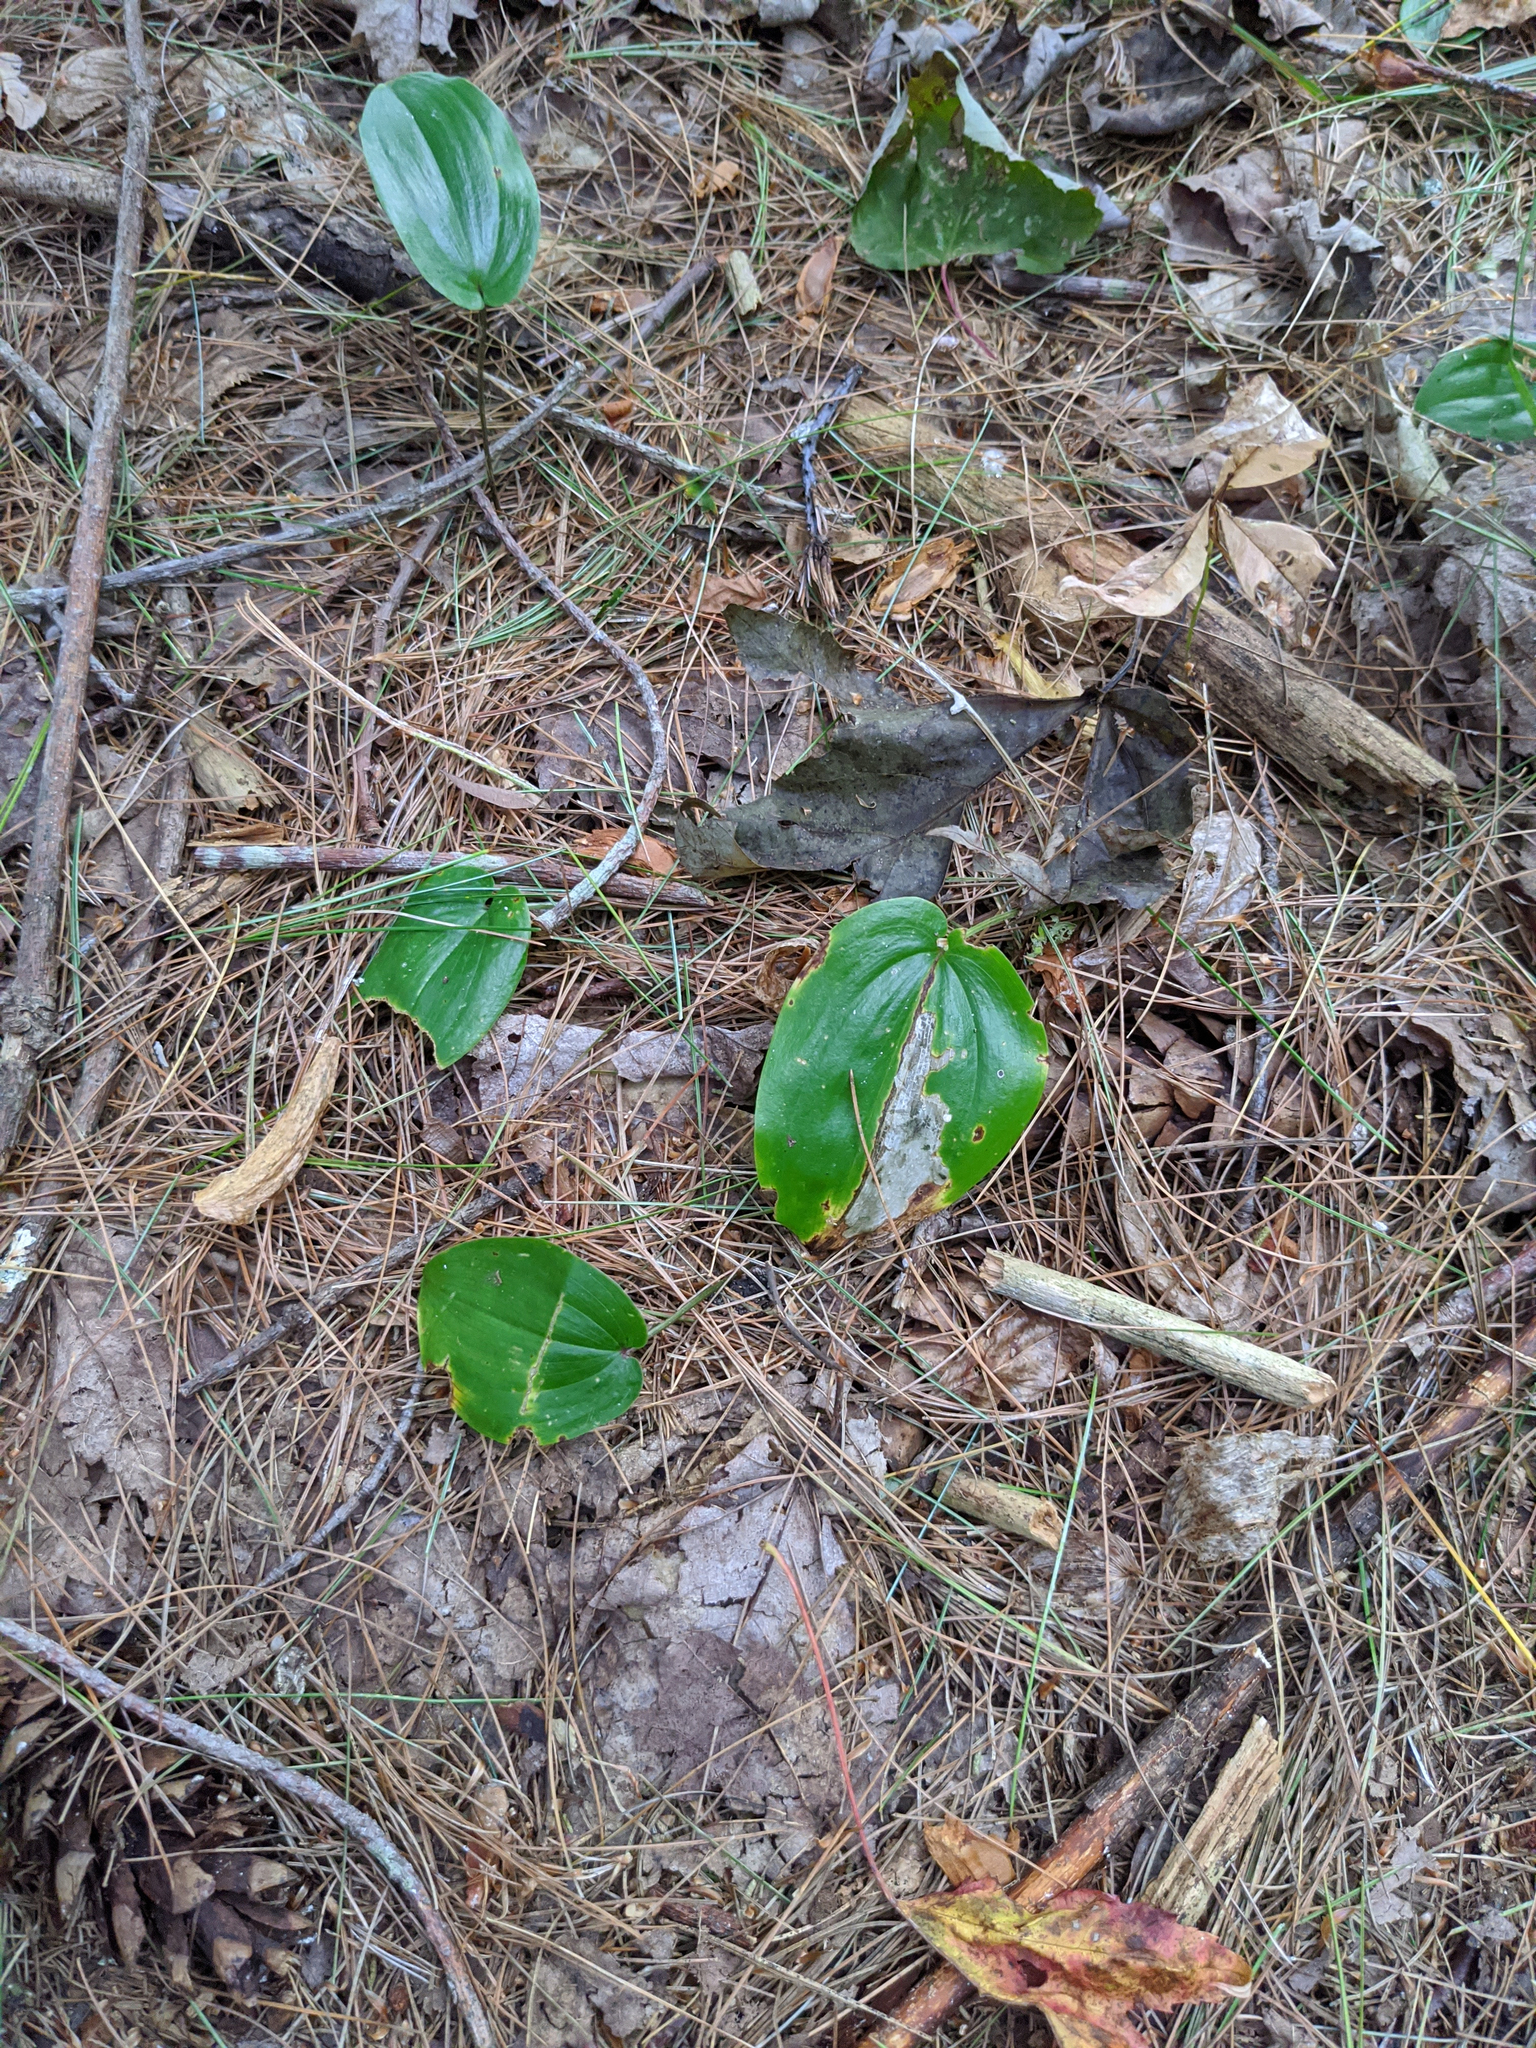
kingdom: Plantae
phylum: Tracheophyta
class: Liliopsida
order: Asparagales
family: Asparagaceae
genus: Maianthemum
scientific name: Maianthemum canadense
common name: False lily-of-the-valley
